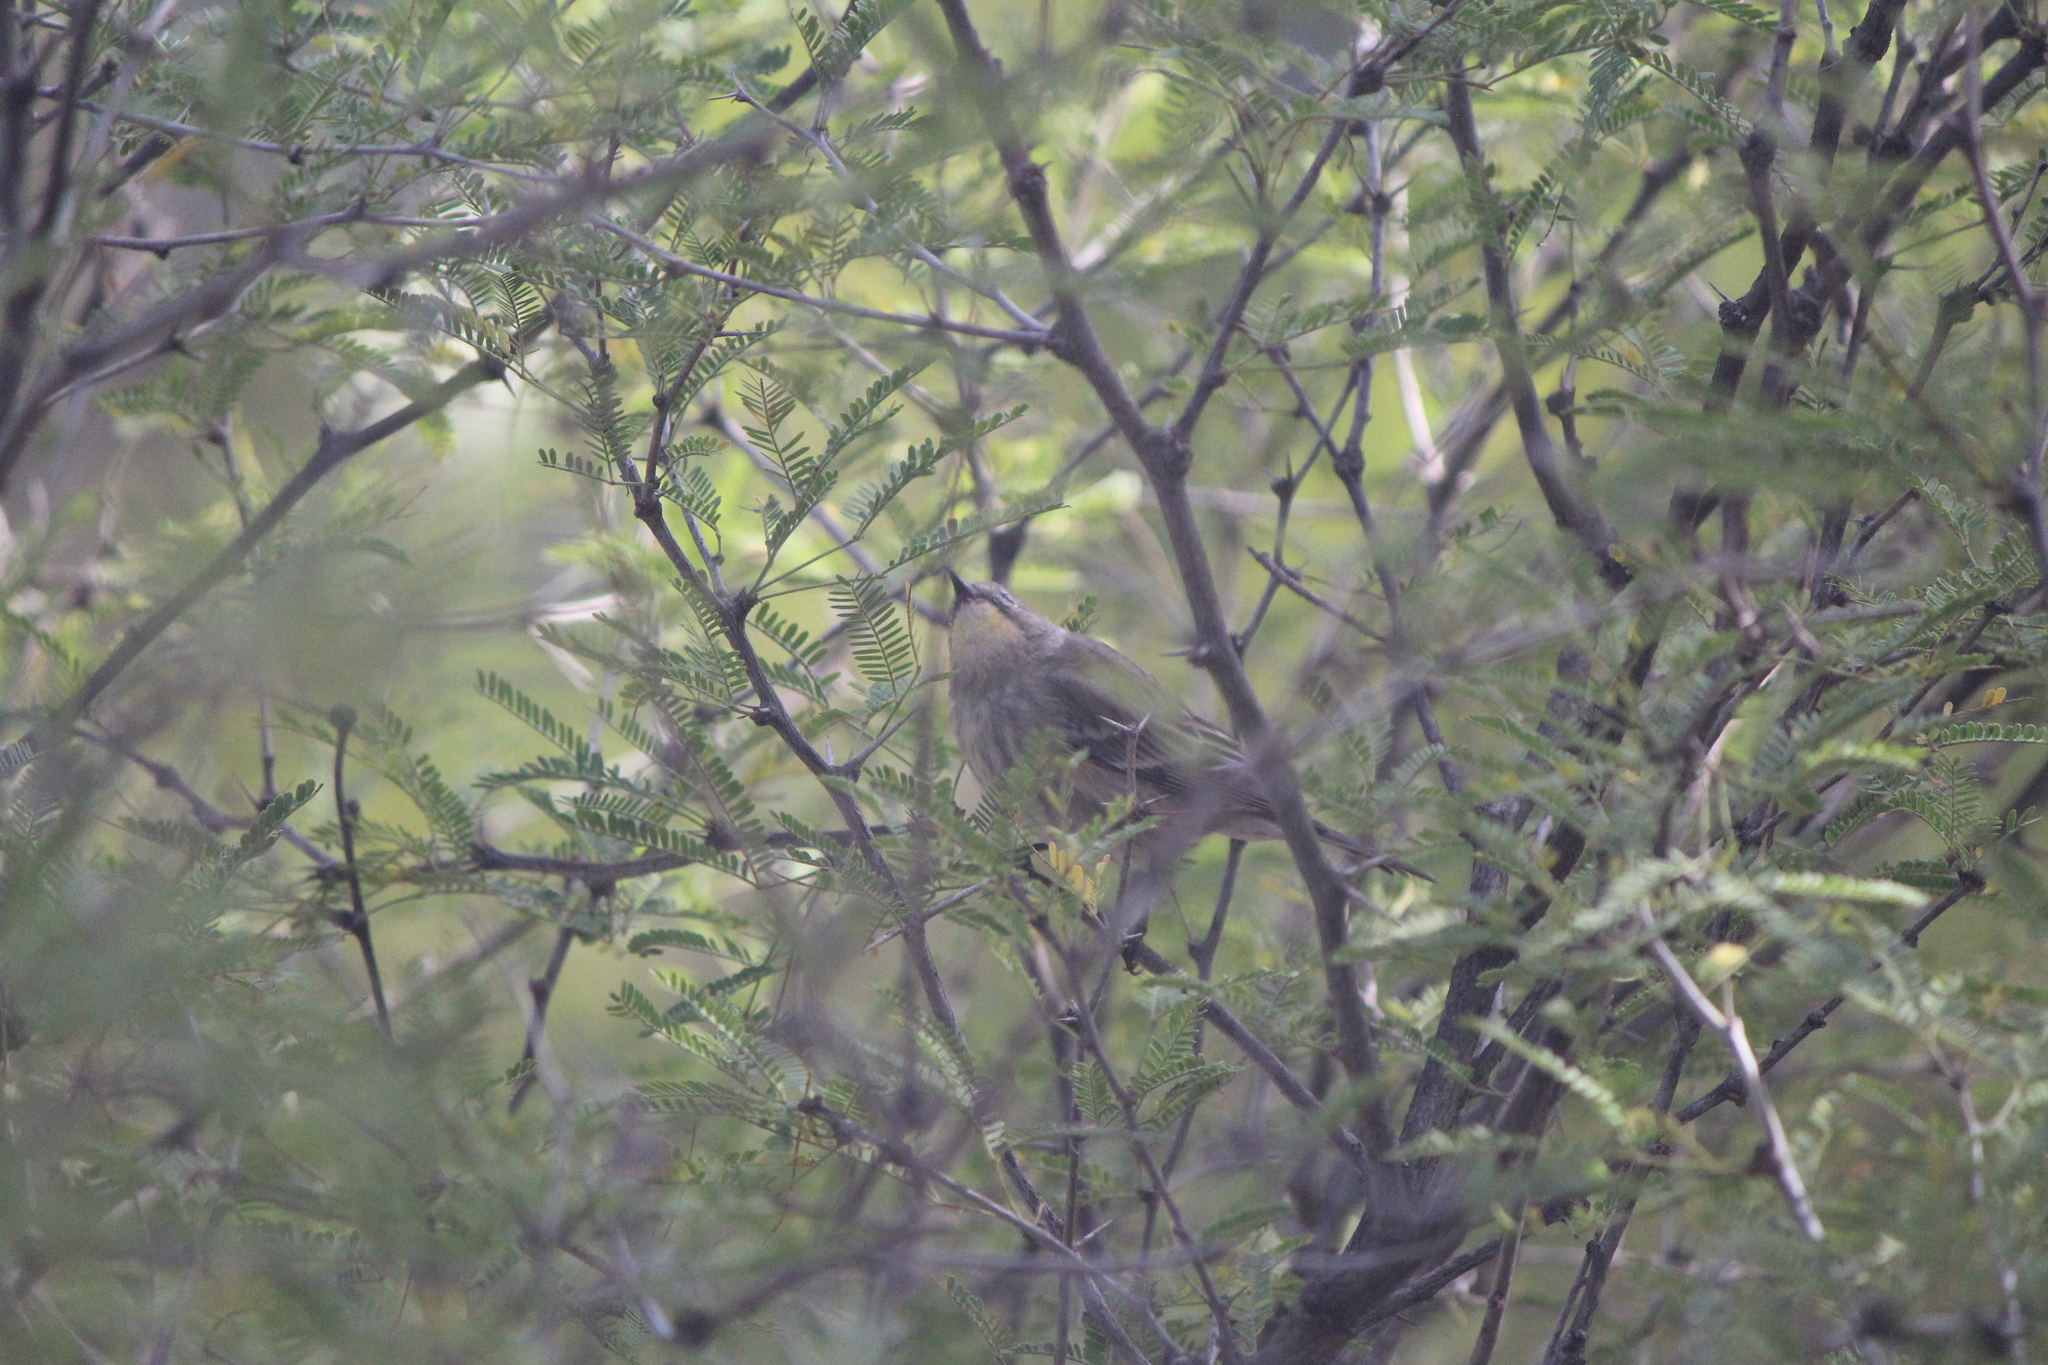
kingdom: Animalia
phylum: Chordata
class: Aves
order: Passeriformes
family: Parulidae
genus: Setophaga
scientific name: Setophaga auduboni
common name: Audubon's warbler
